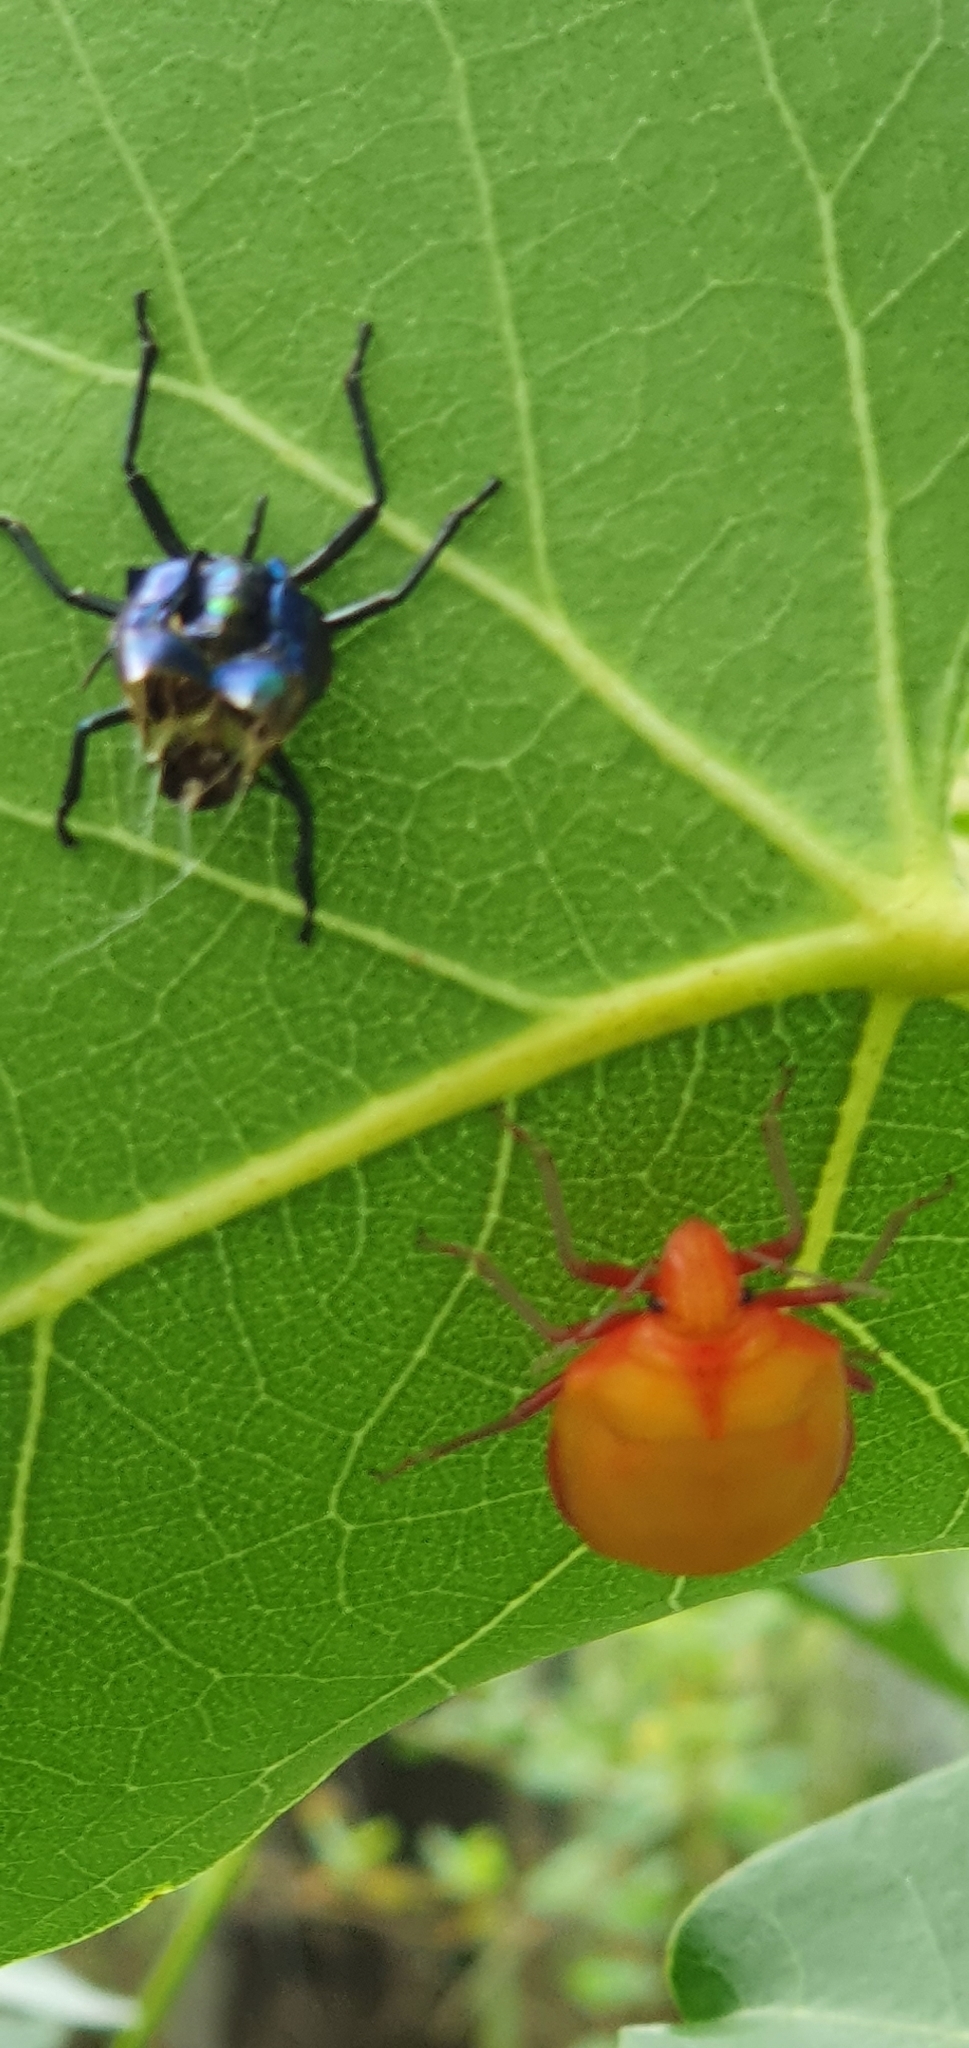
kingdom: Animalia
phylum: Arthropoda
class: Insecta
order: Hemiptera
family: Scutelleridae
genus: Tectocoris
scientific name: Tectocoris diophthalmus
